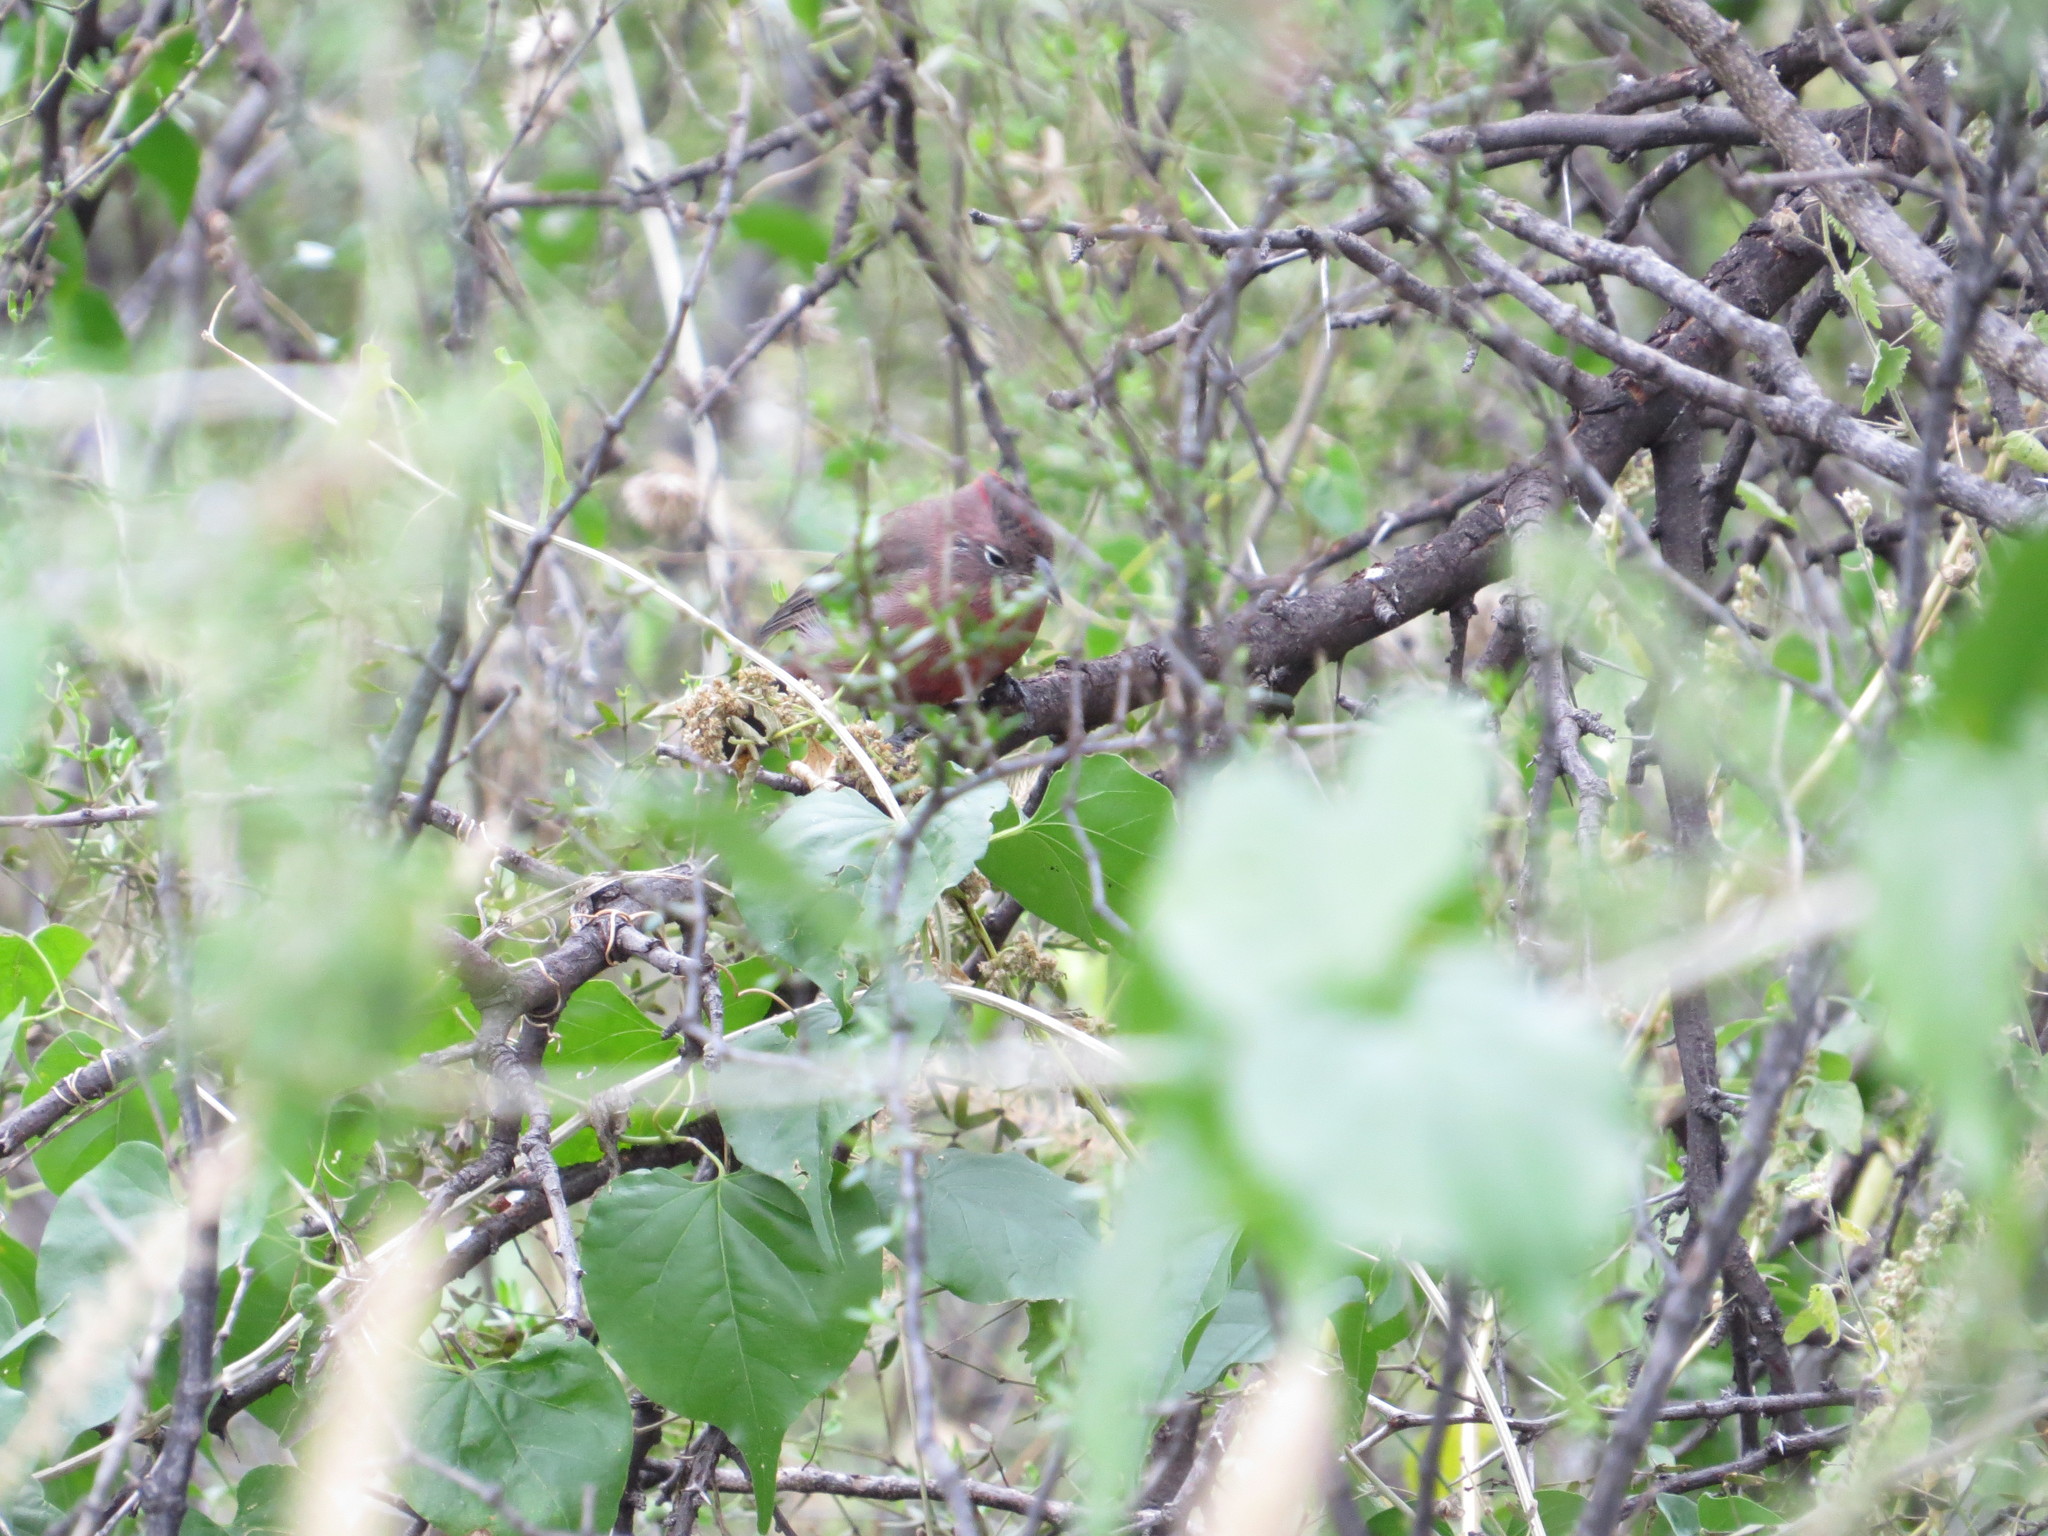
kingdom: Animalia
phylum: Chordata
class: Aves
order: Passeriformes
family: Thraupidae
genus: Coryphospingus
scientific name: Coryphospingus cucullatus
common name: Red pileated finch
